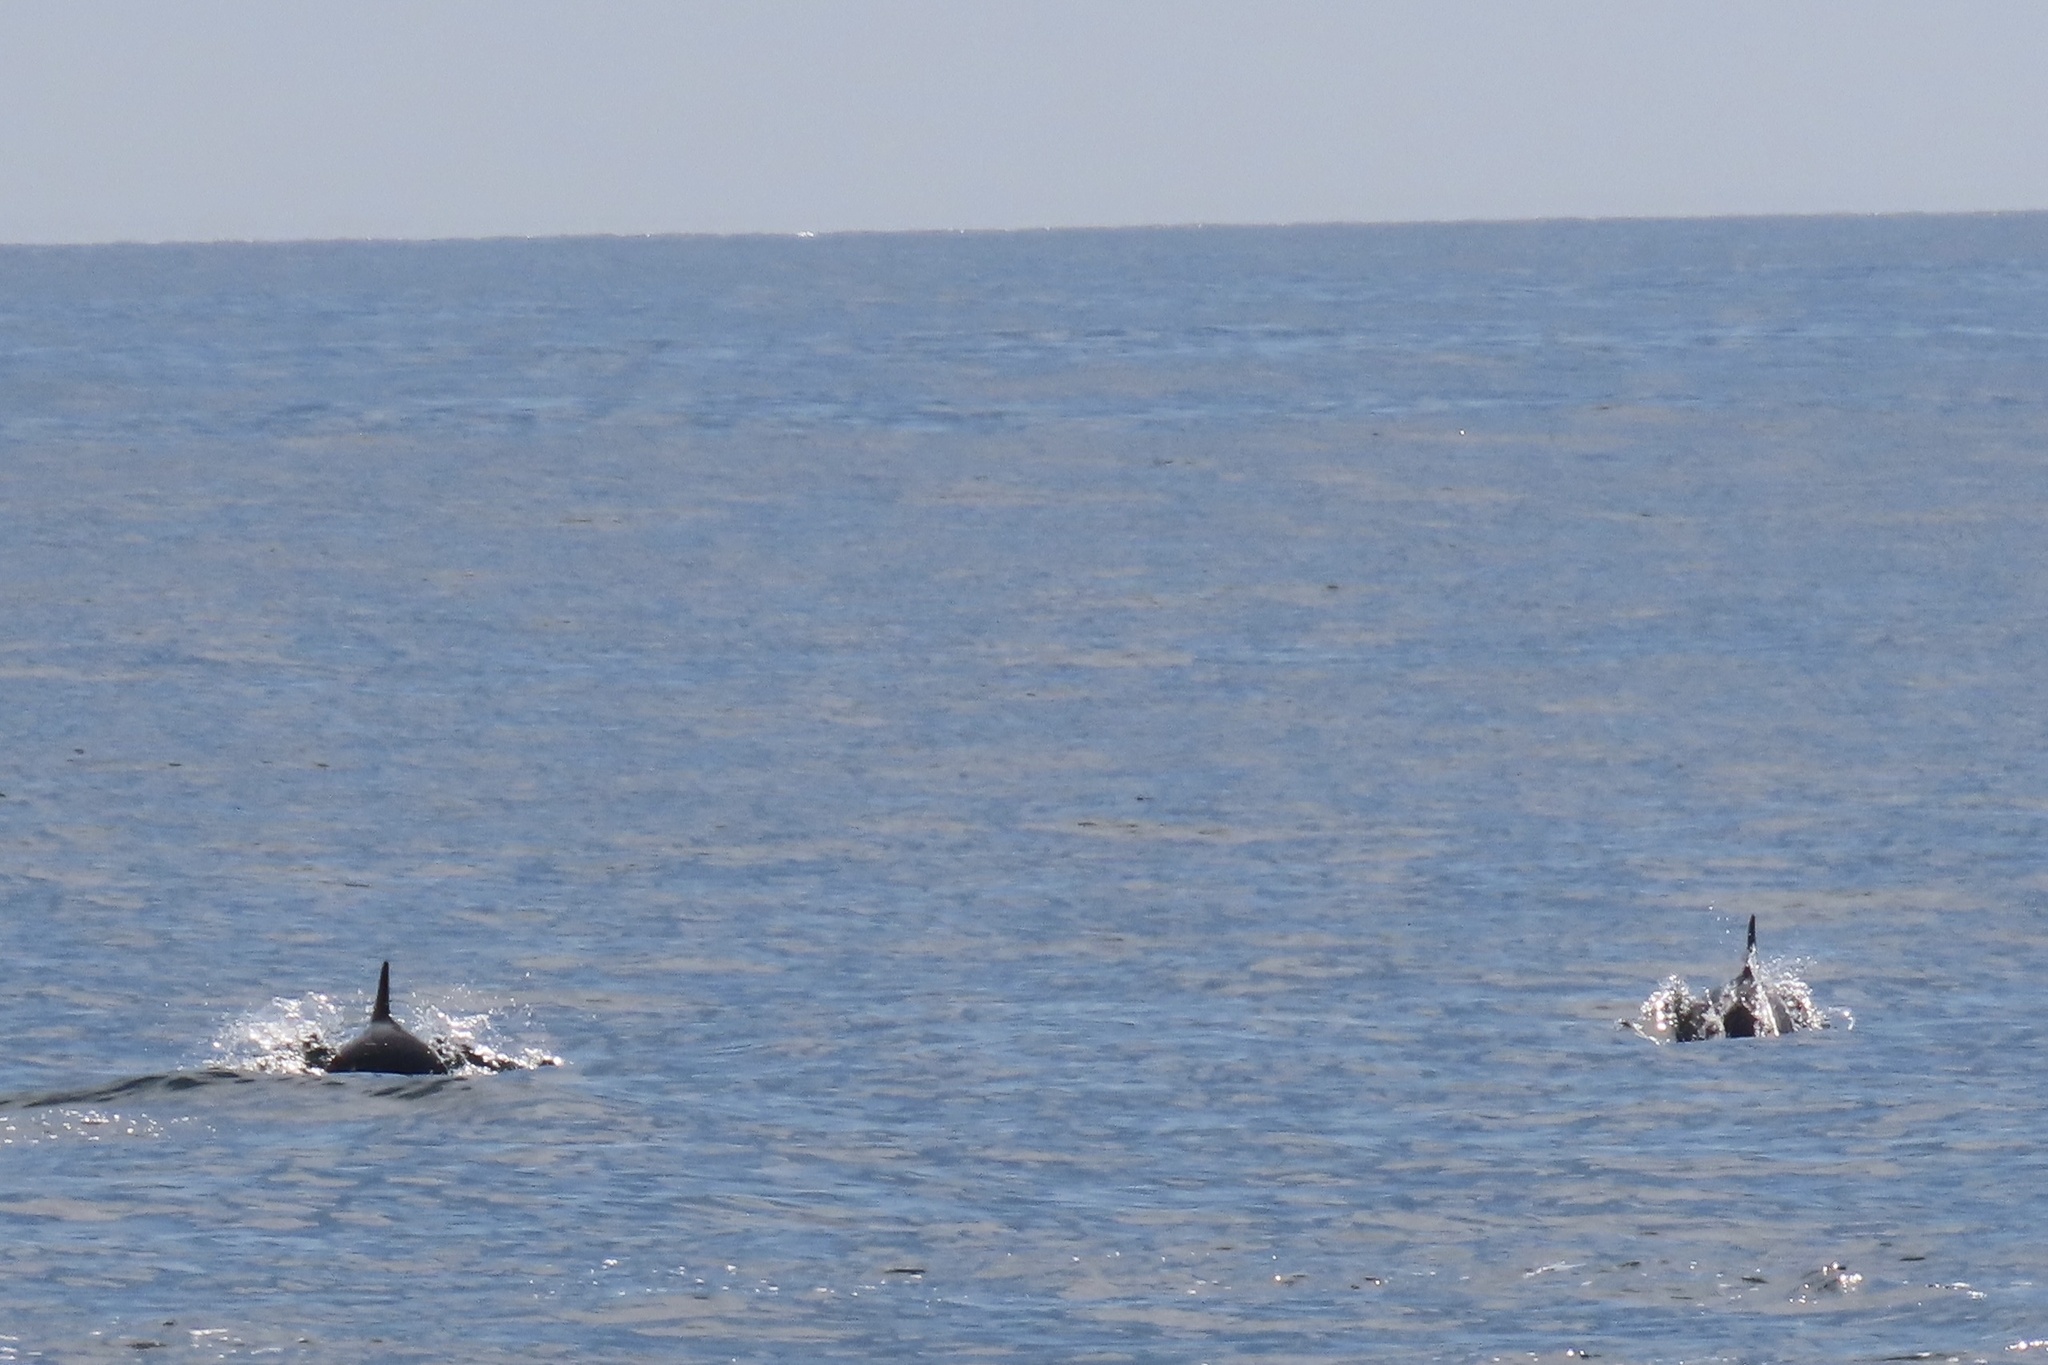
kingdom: Animalia
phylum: Chordata
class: Mammalia
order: Cetacea
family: Delphinidae
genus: Delphinus
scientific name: Delphinus delphis
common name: Common dolphin
